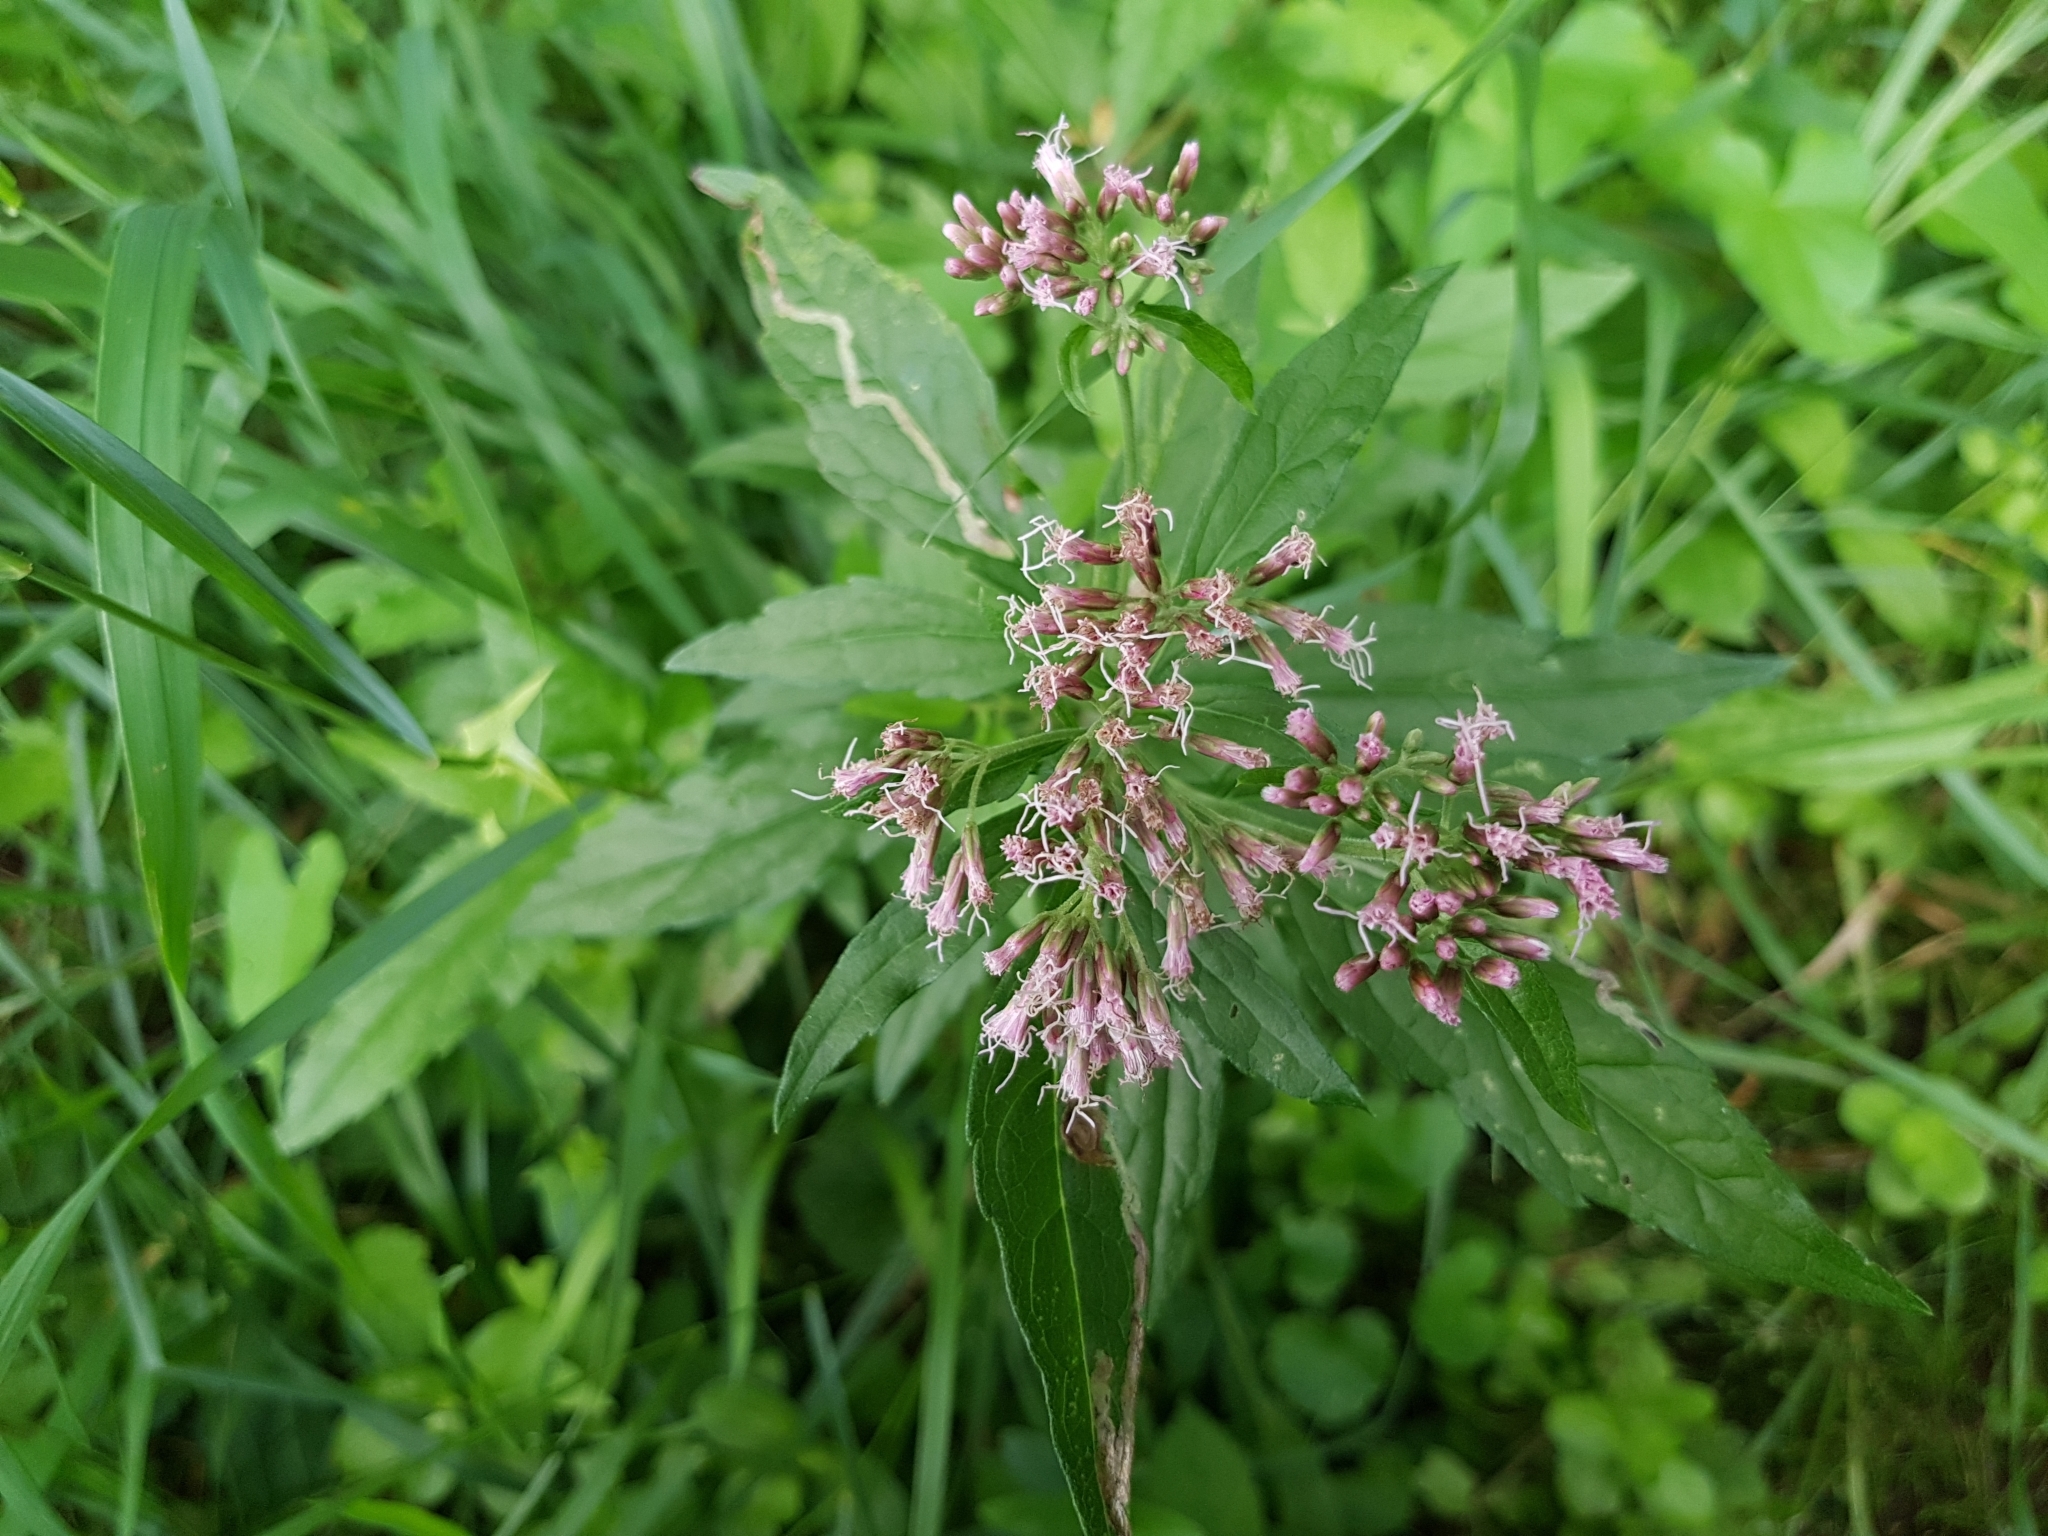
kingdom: Plantae
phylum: Tracheophyta
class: Magnoliopsida
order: Asterales
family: Asteraceae
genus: Eupatorium
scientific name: Eupatorium cannabinum
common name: Hemp-agrimony
